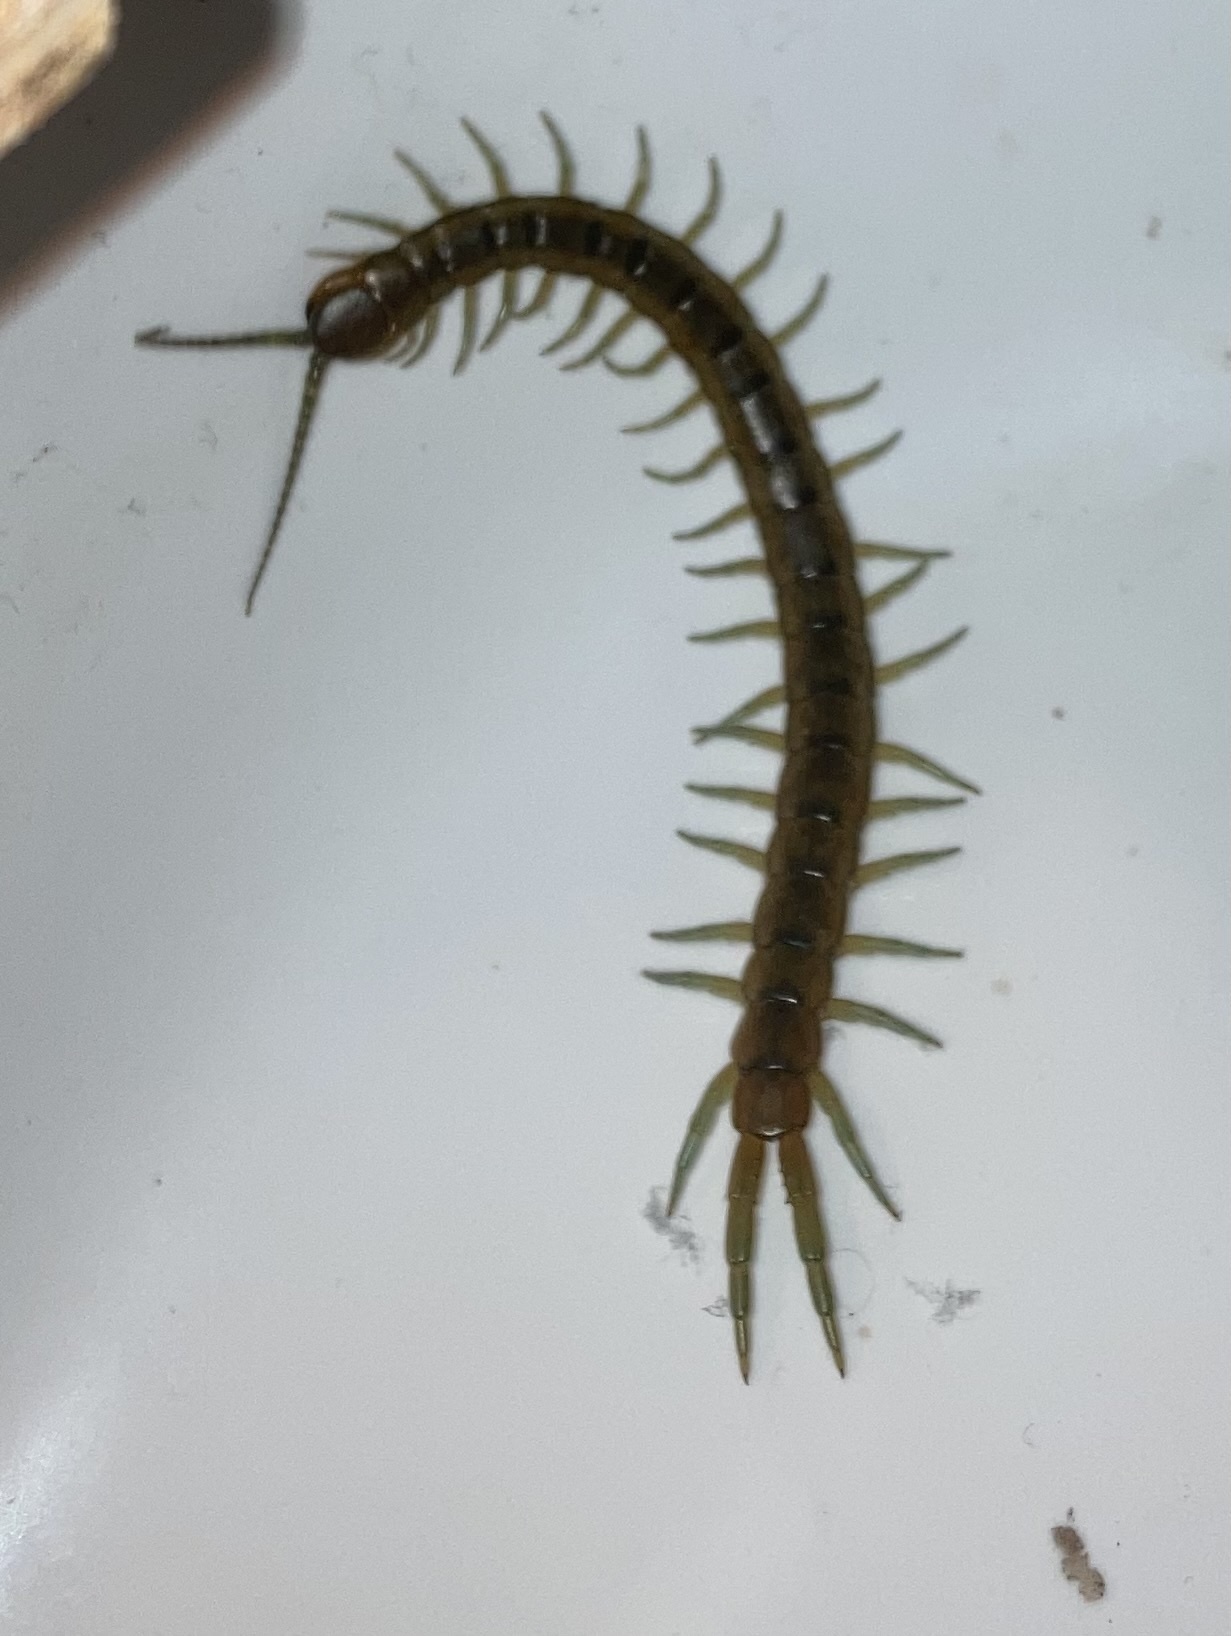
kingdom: Animalia
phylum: Arthropoda
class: Chilopoda
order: Scolopendromorpha
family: Scolopendridae
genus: Scolopendra
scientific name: Scolopendra cingulata
